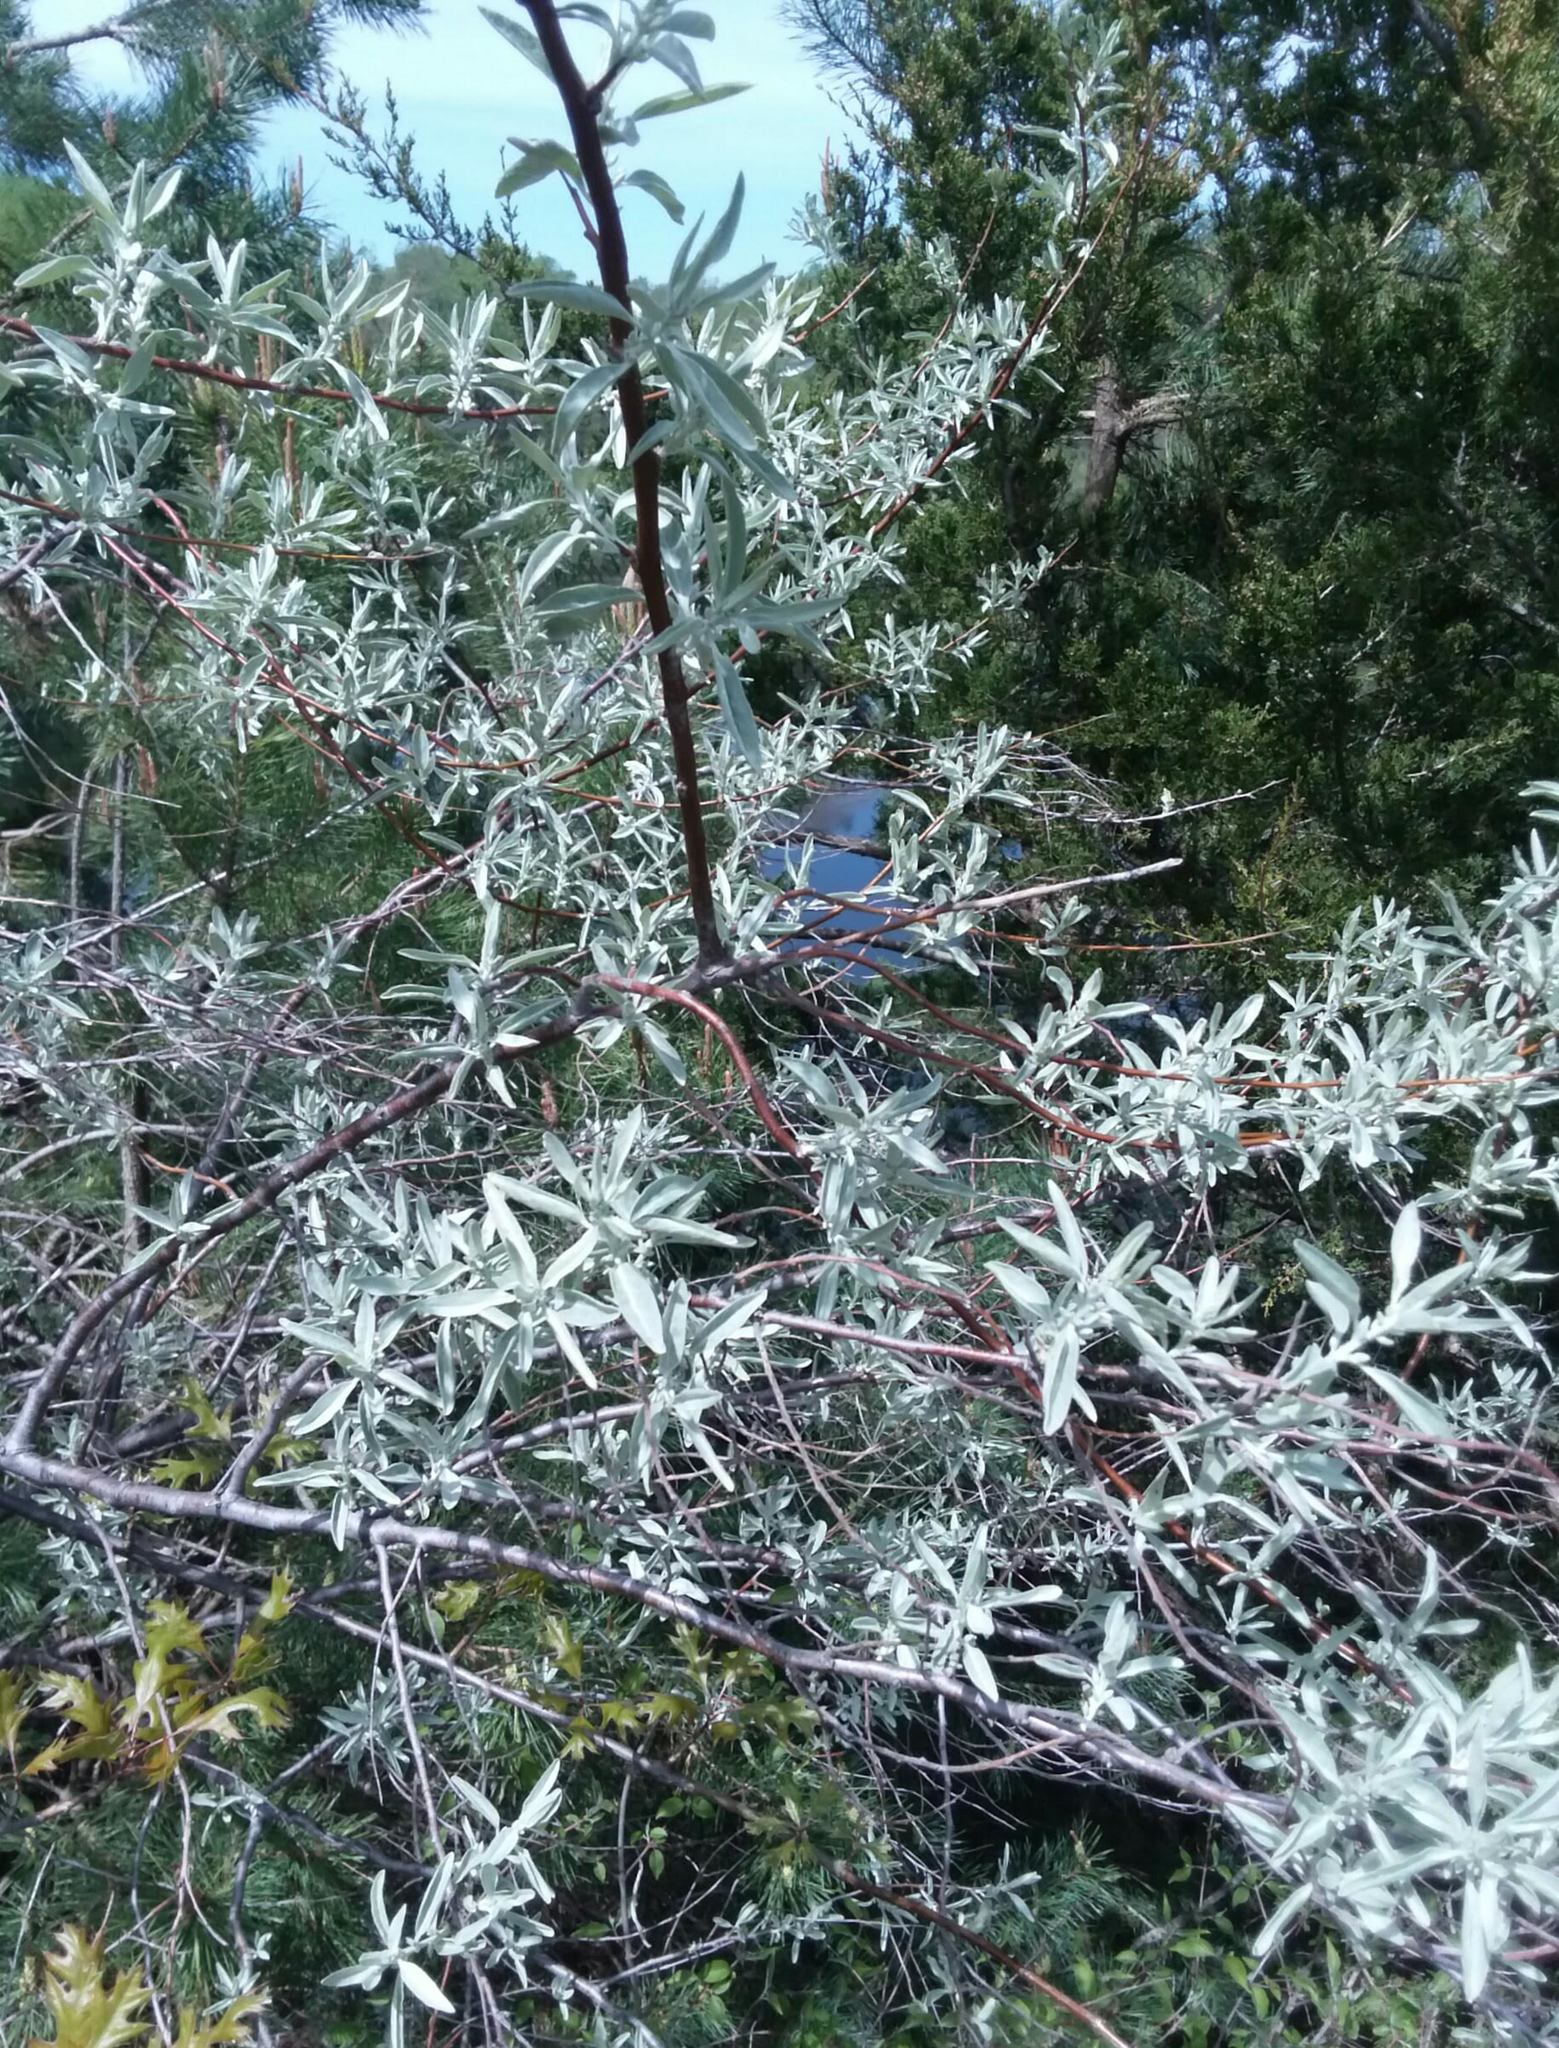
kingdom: Plantae
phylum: Tracheophyta
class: Magnoliopsida
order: Rosales
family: Elaeagnaceae
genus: Elaeagnus
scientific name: Elaeagnus angustifolia
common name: Russian olive
